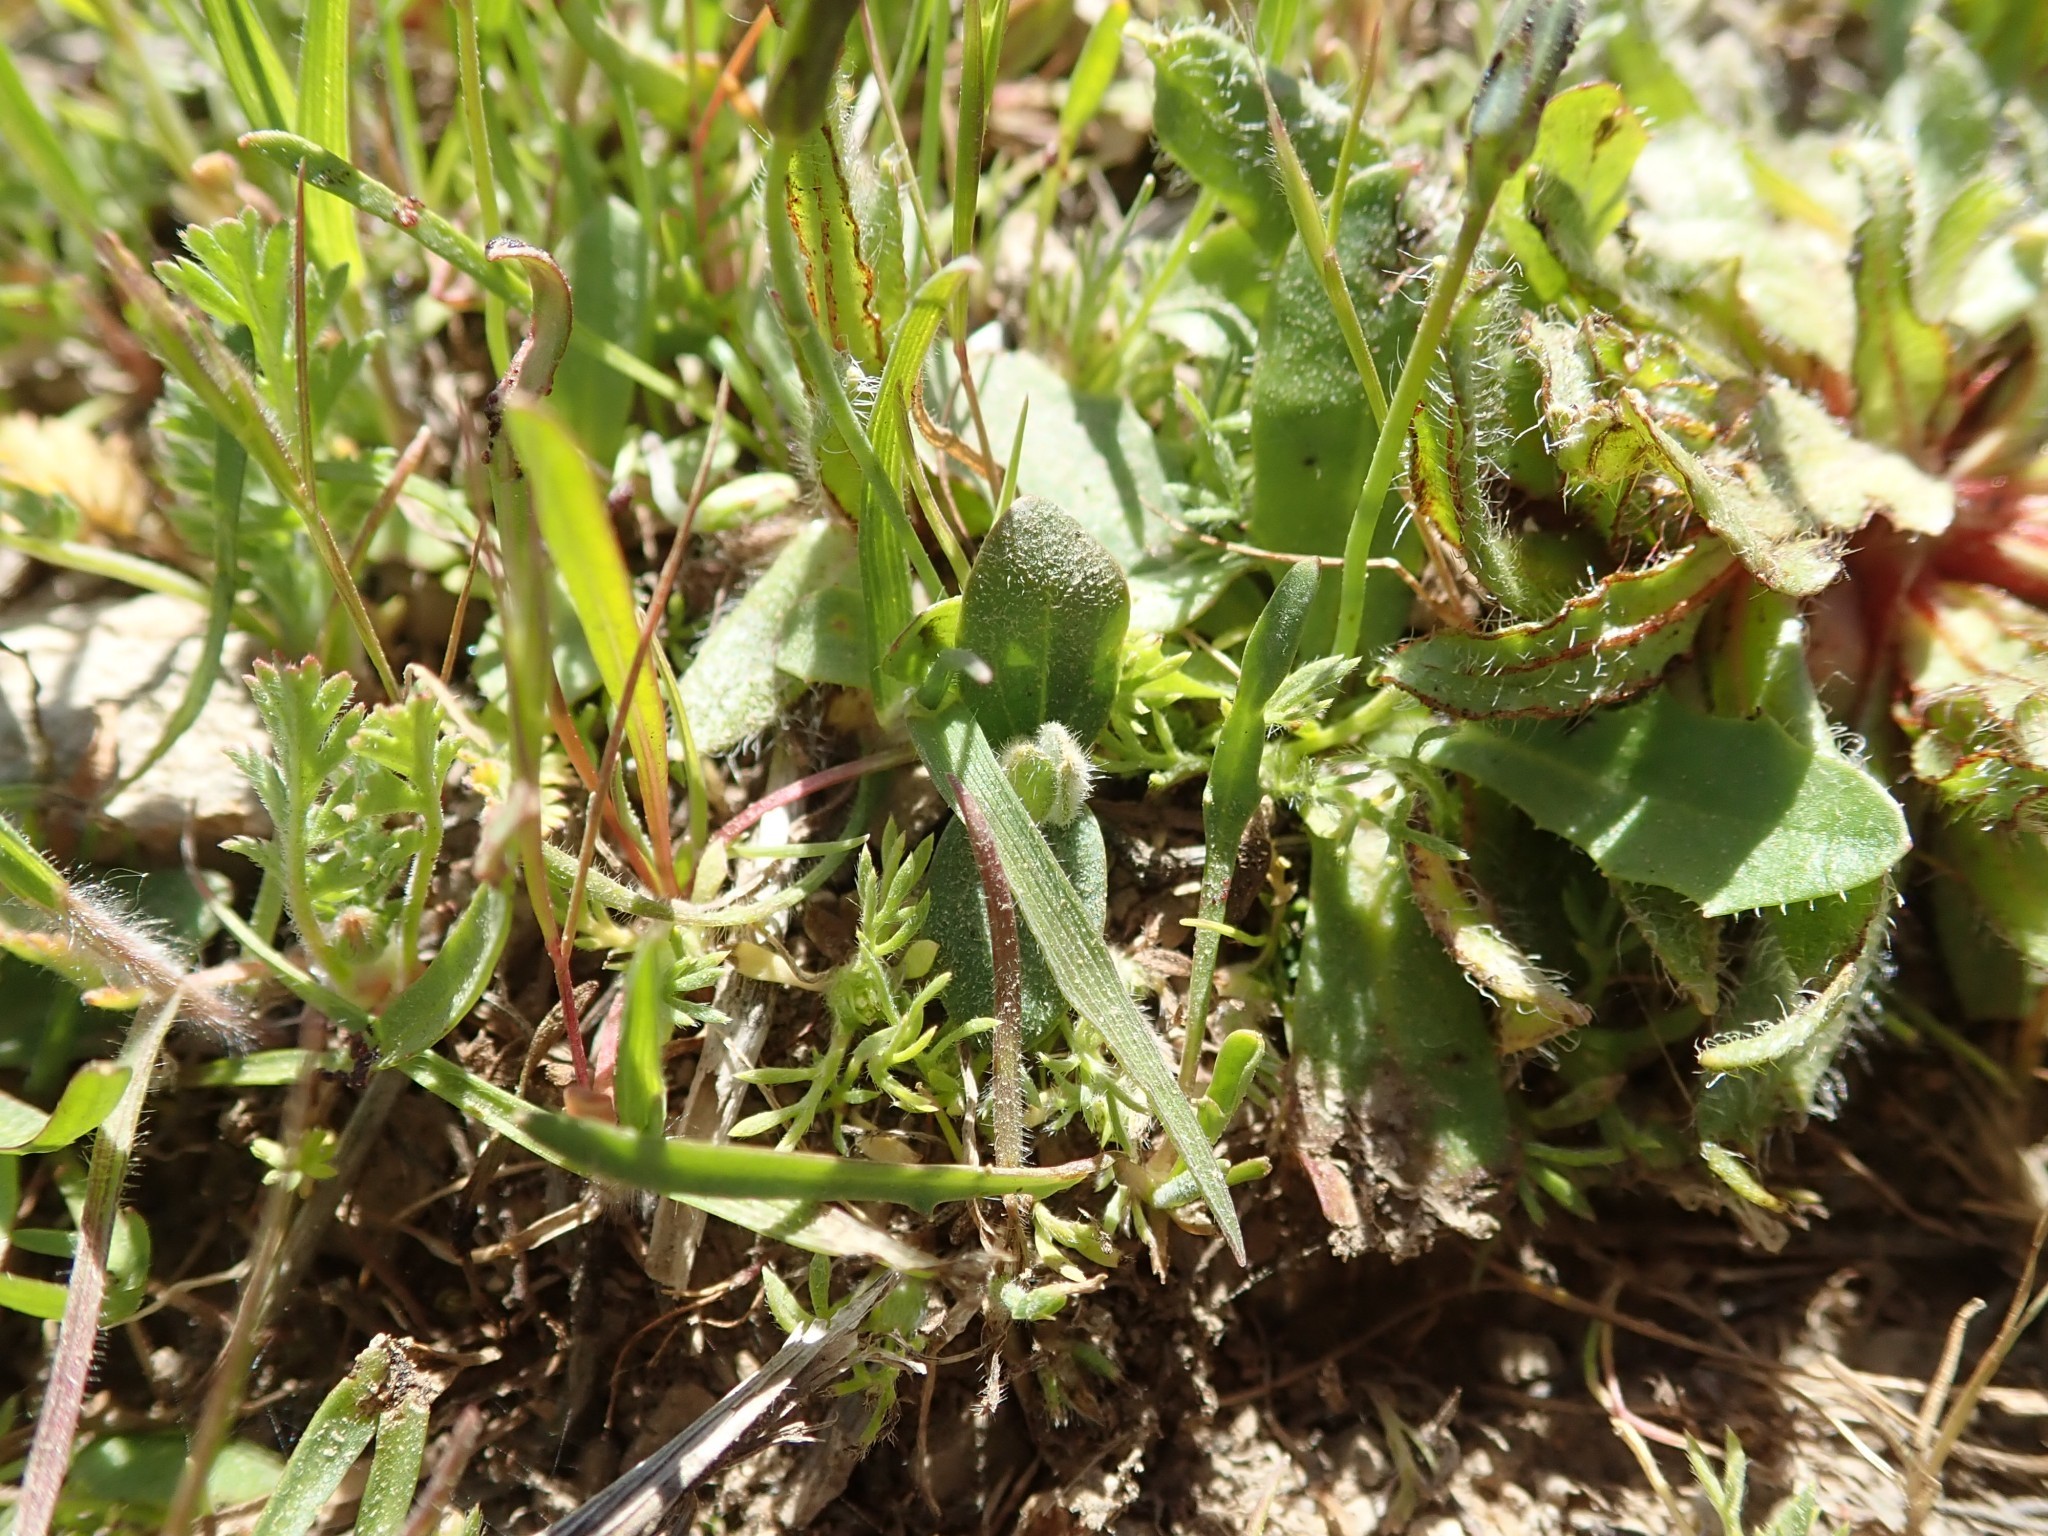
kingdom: Plantae
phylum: Tracheophyta
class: Magnoliopsida
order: Boraginales
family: Boraginaceae
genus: Plagiobothrys
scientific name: Plagiobothrys nothofulvus
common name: Popcorn-flower
